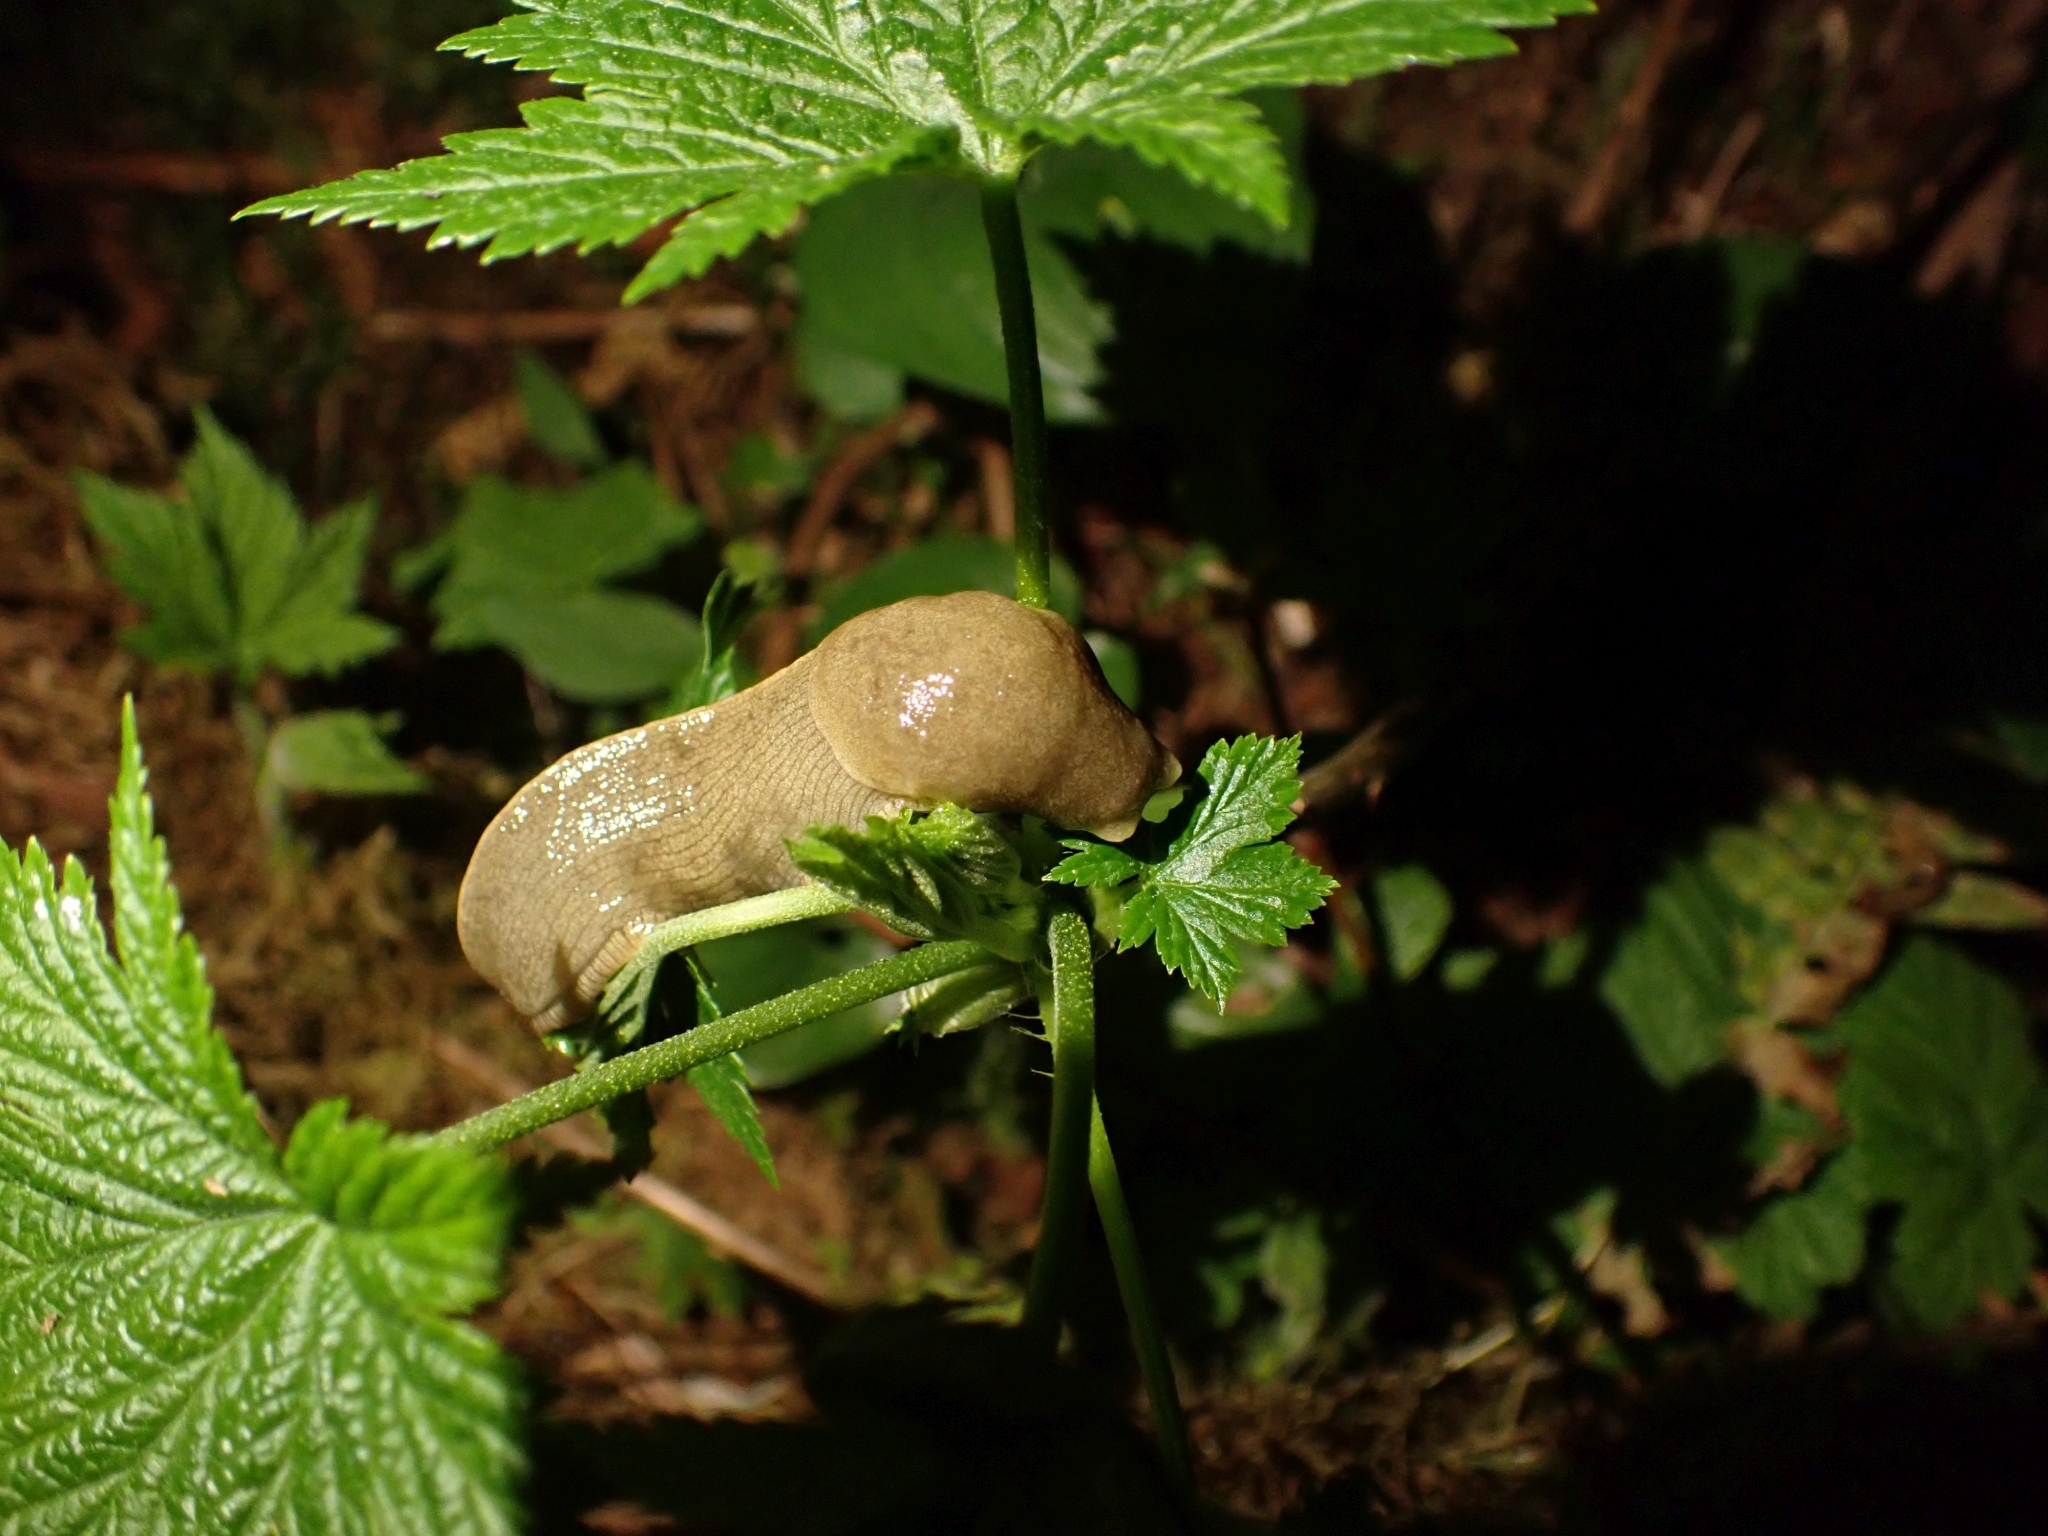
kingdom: Animalia
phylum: Mollusca
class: Gastropoda
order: Stylommatophora
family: Ariolimacidae
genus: Ariolimax
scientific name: Ariolimax columbianus
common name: Pacific banana slug
